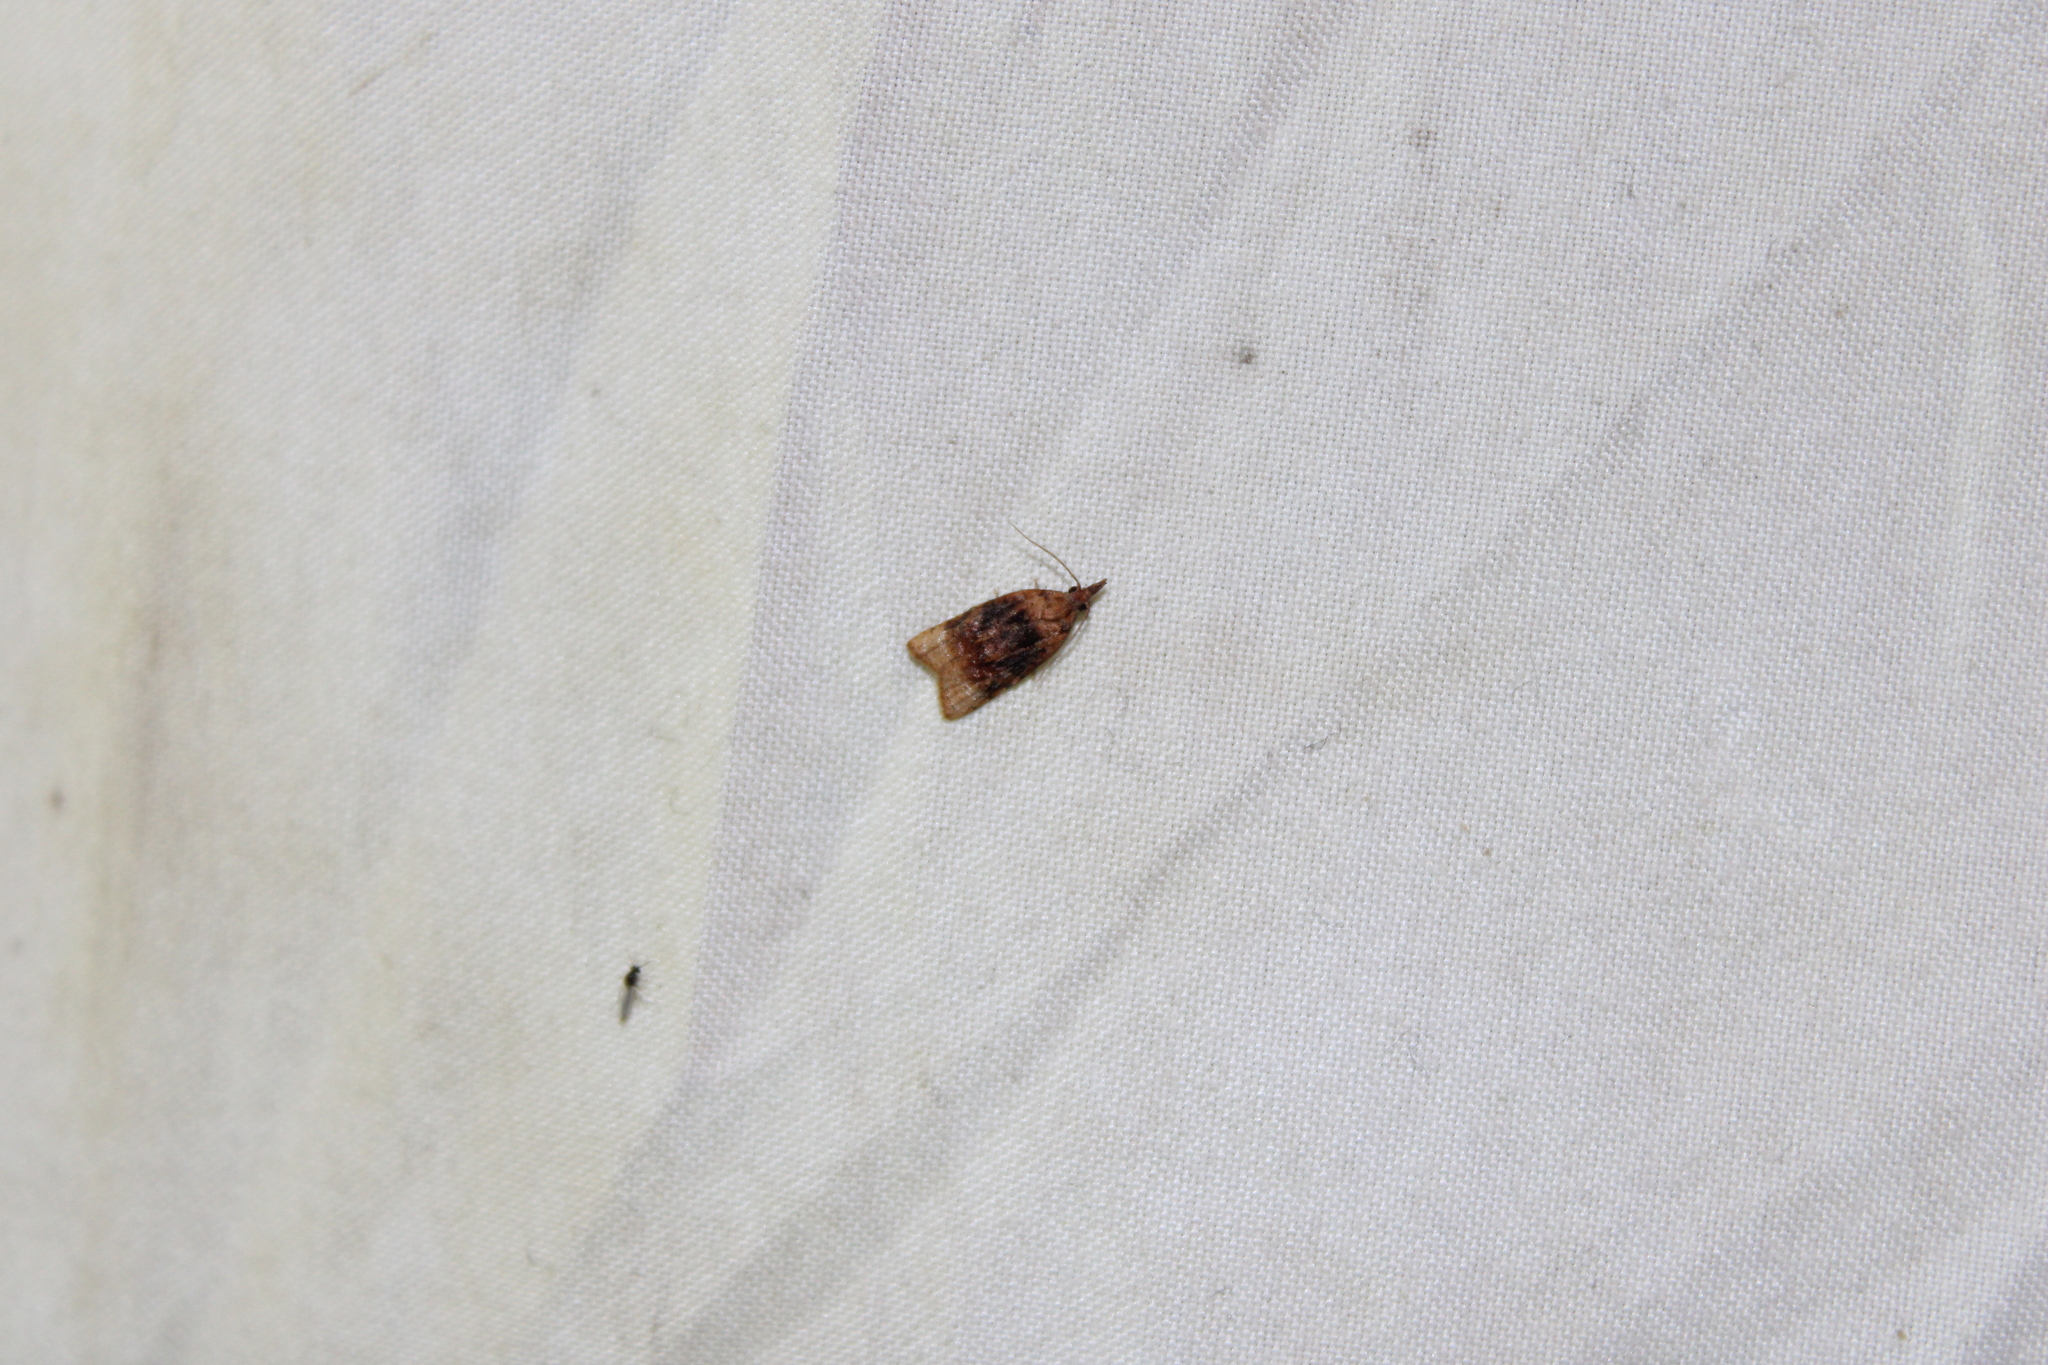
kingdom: Animalia
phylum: Arthropoda
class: Insecta
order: Lepidoptera
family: Tortricidae
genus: Platynota
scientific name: Platynota flavedana
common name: Black-shaded platynota moth
